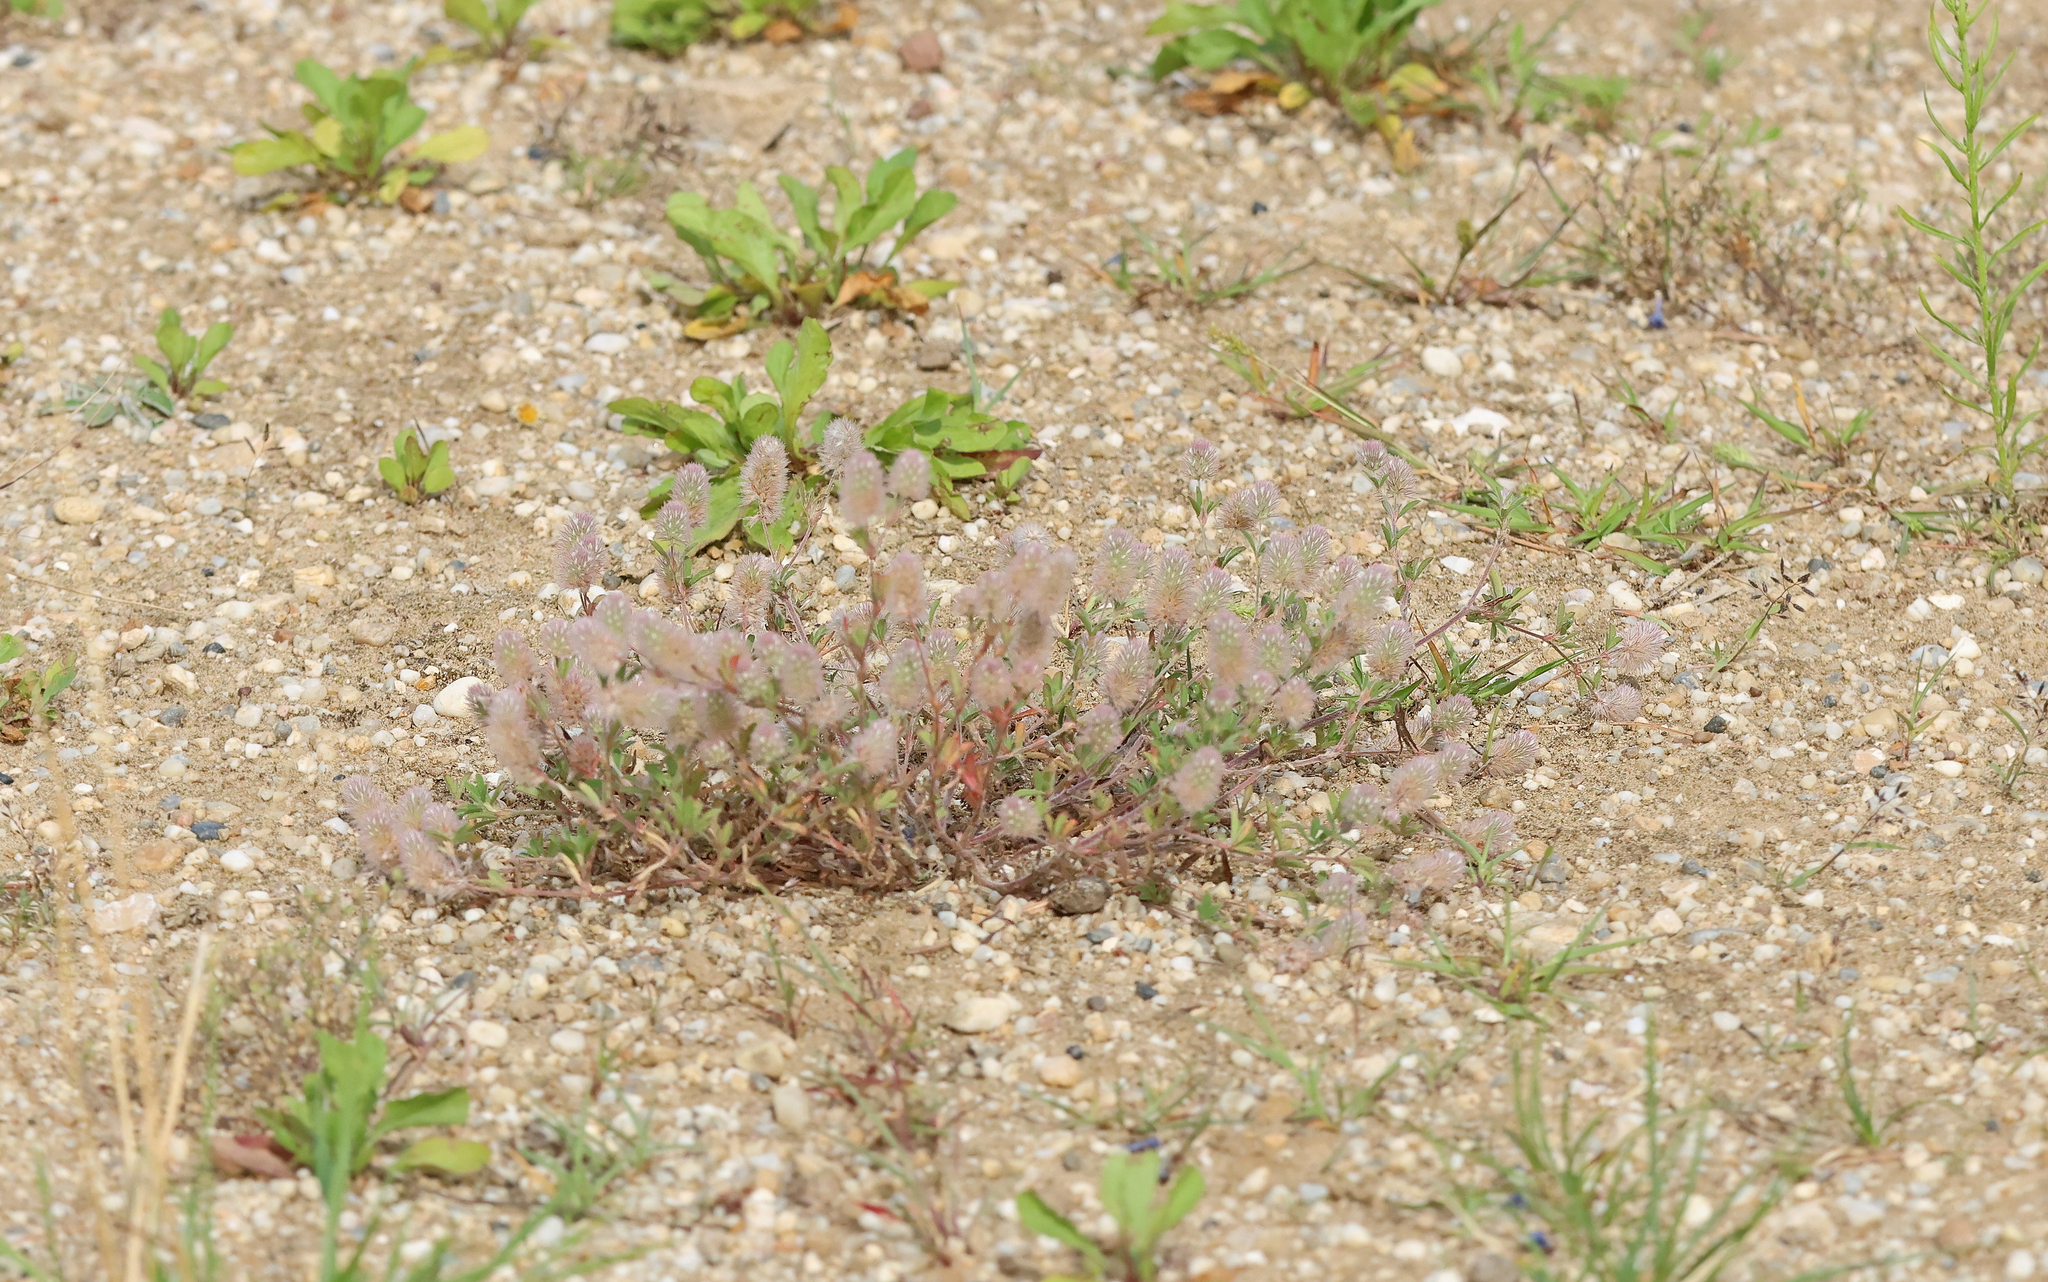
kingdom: Plantae
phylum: Tracheophyta
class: Magnoliopsida
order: Fabales
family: Fabaceae
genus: Trifolium
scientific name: Trifolium arvense
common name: Hare's-foot clover
